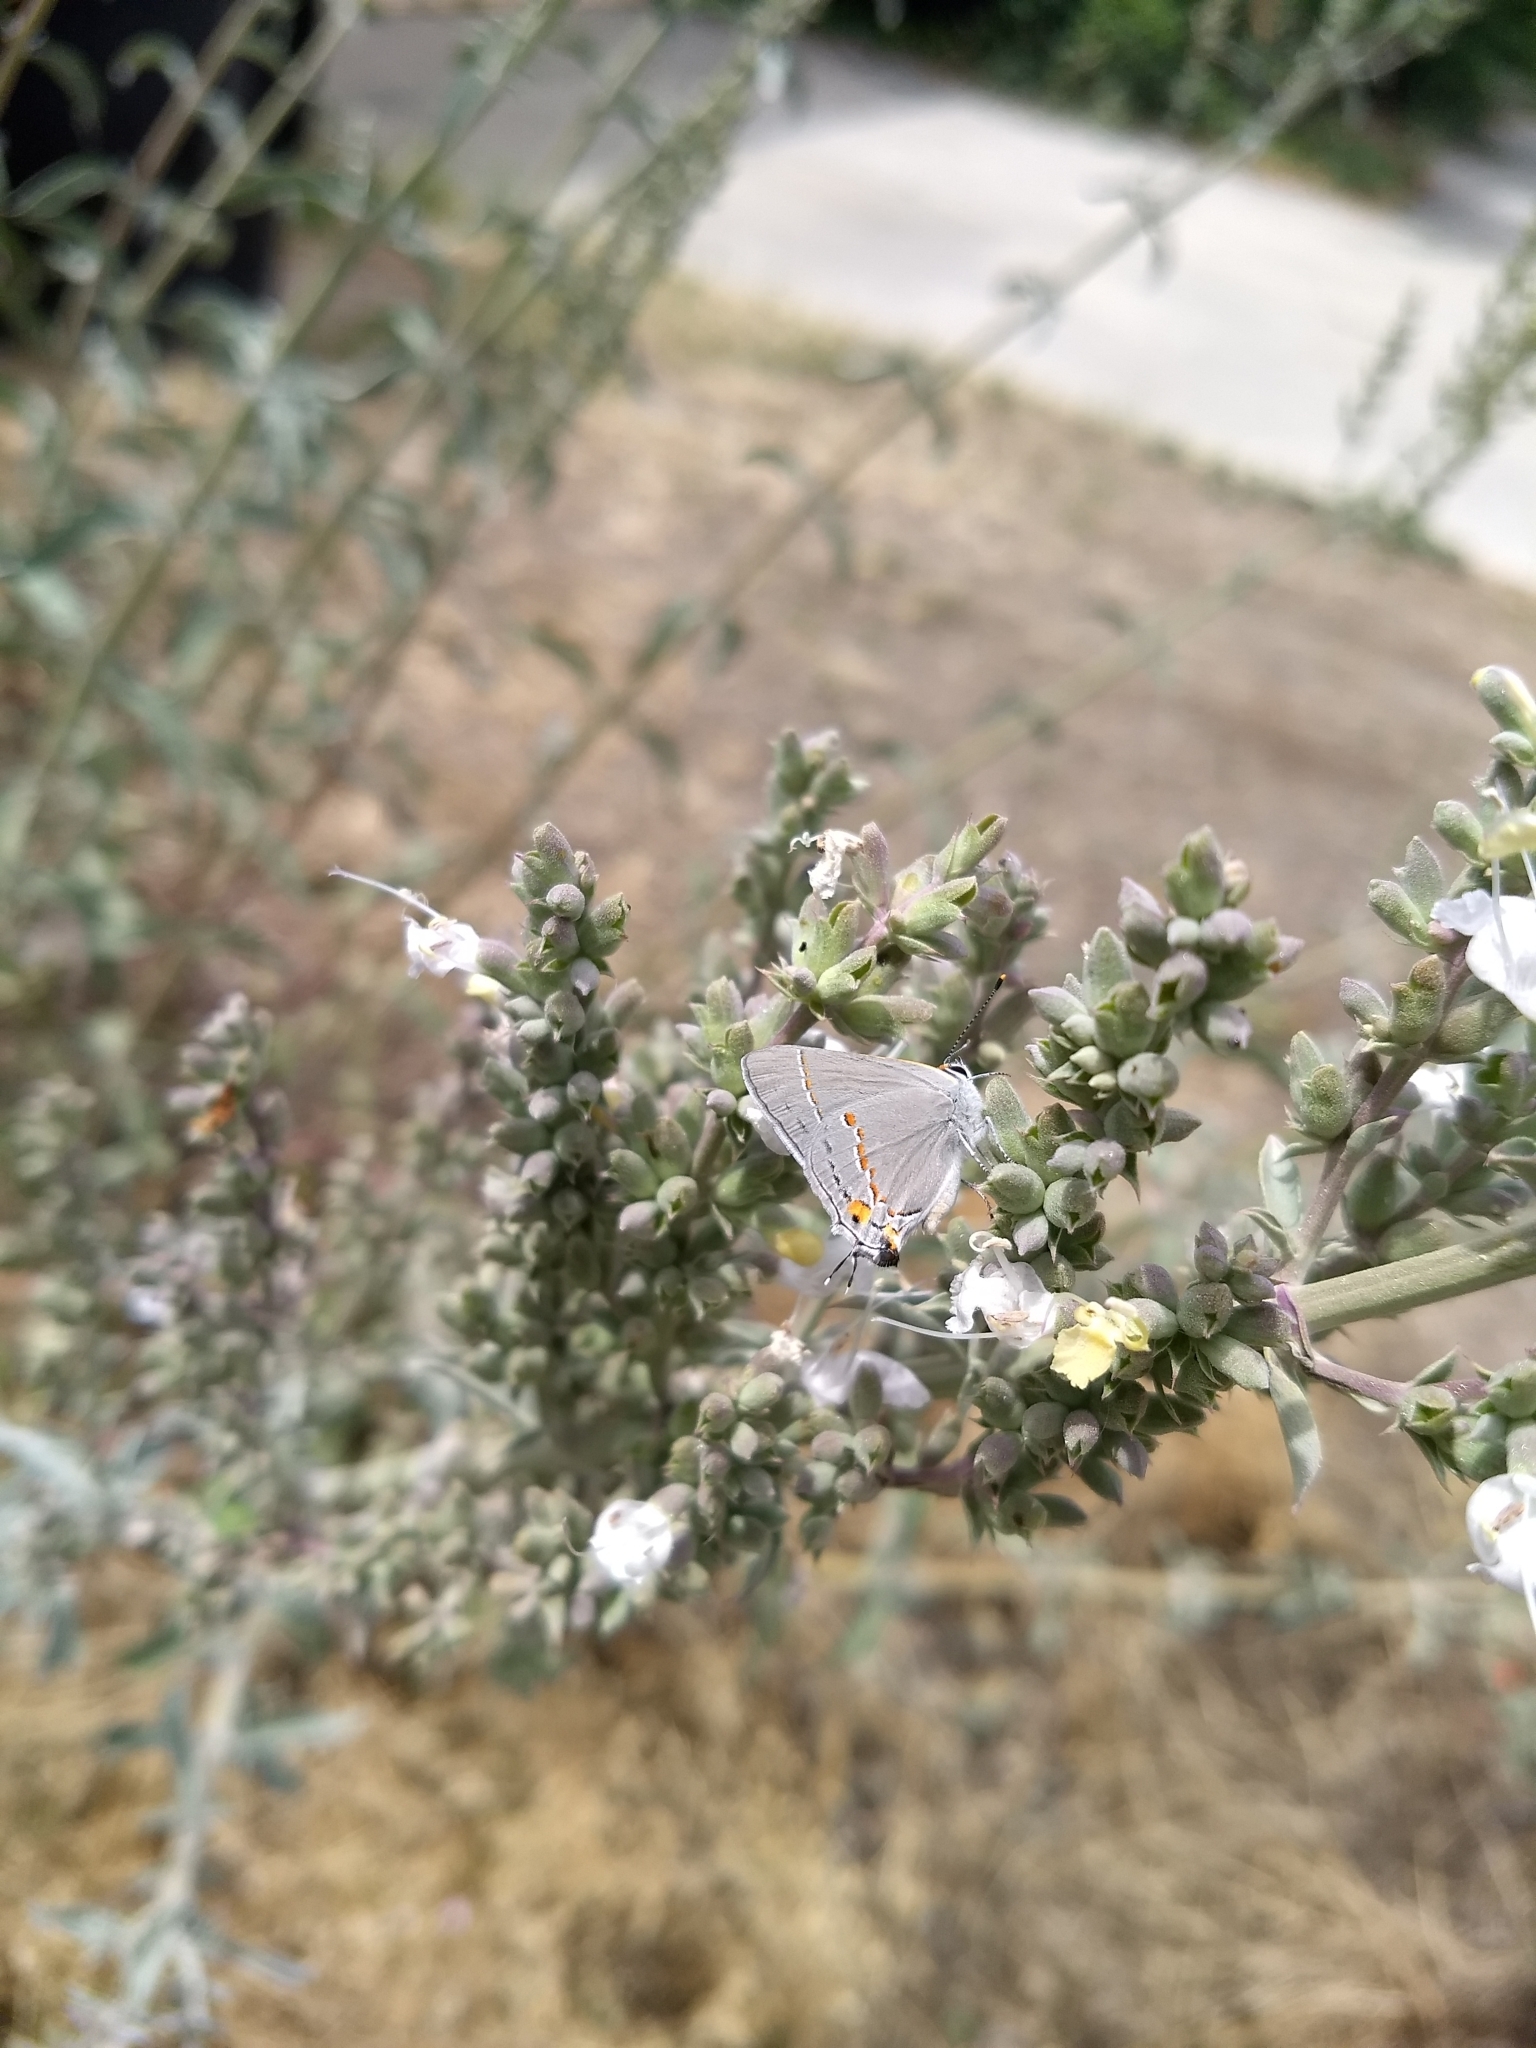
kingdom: Animalia
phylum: Arthropoda
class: Insecta
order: Lepidoptera
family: Lycaenidae
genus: Strymon
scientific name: Strymon melinus
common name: Gray hairstreak
